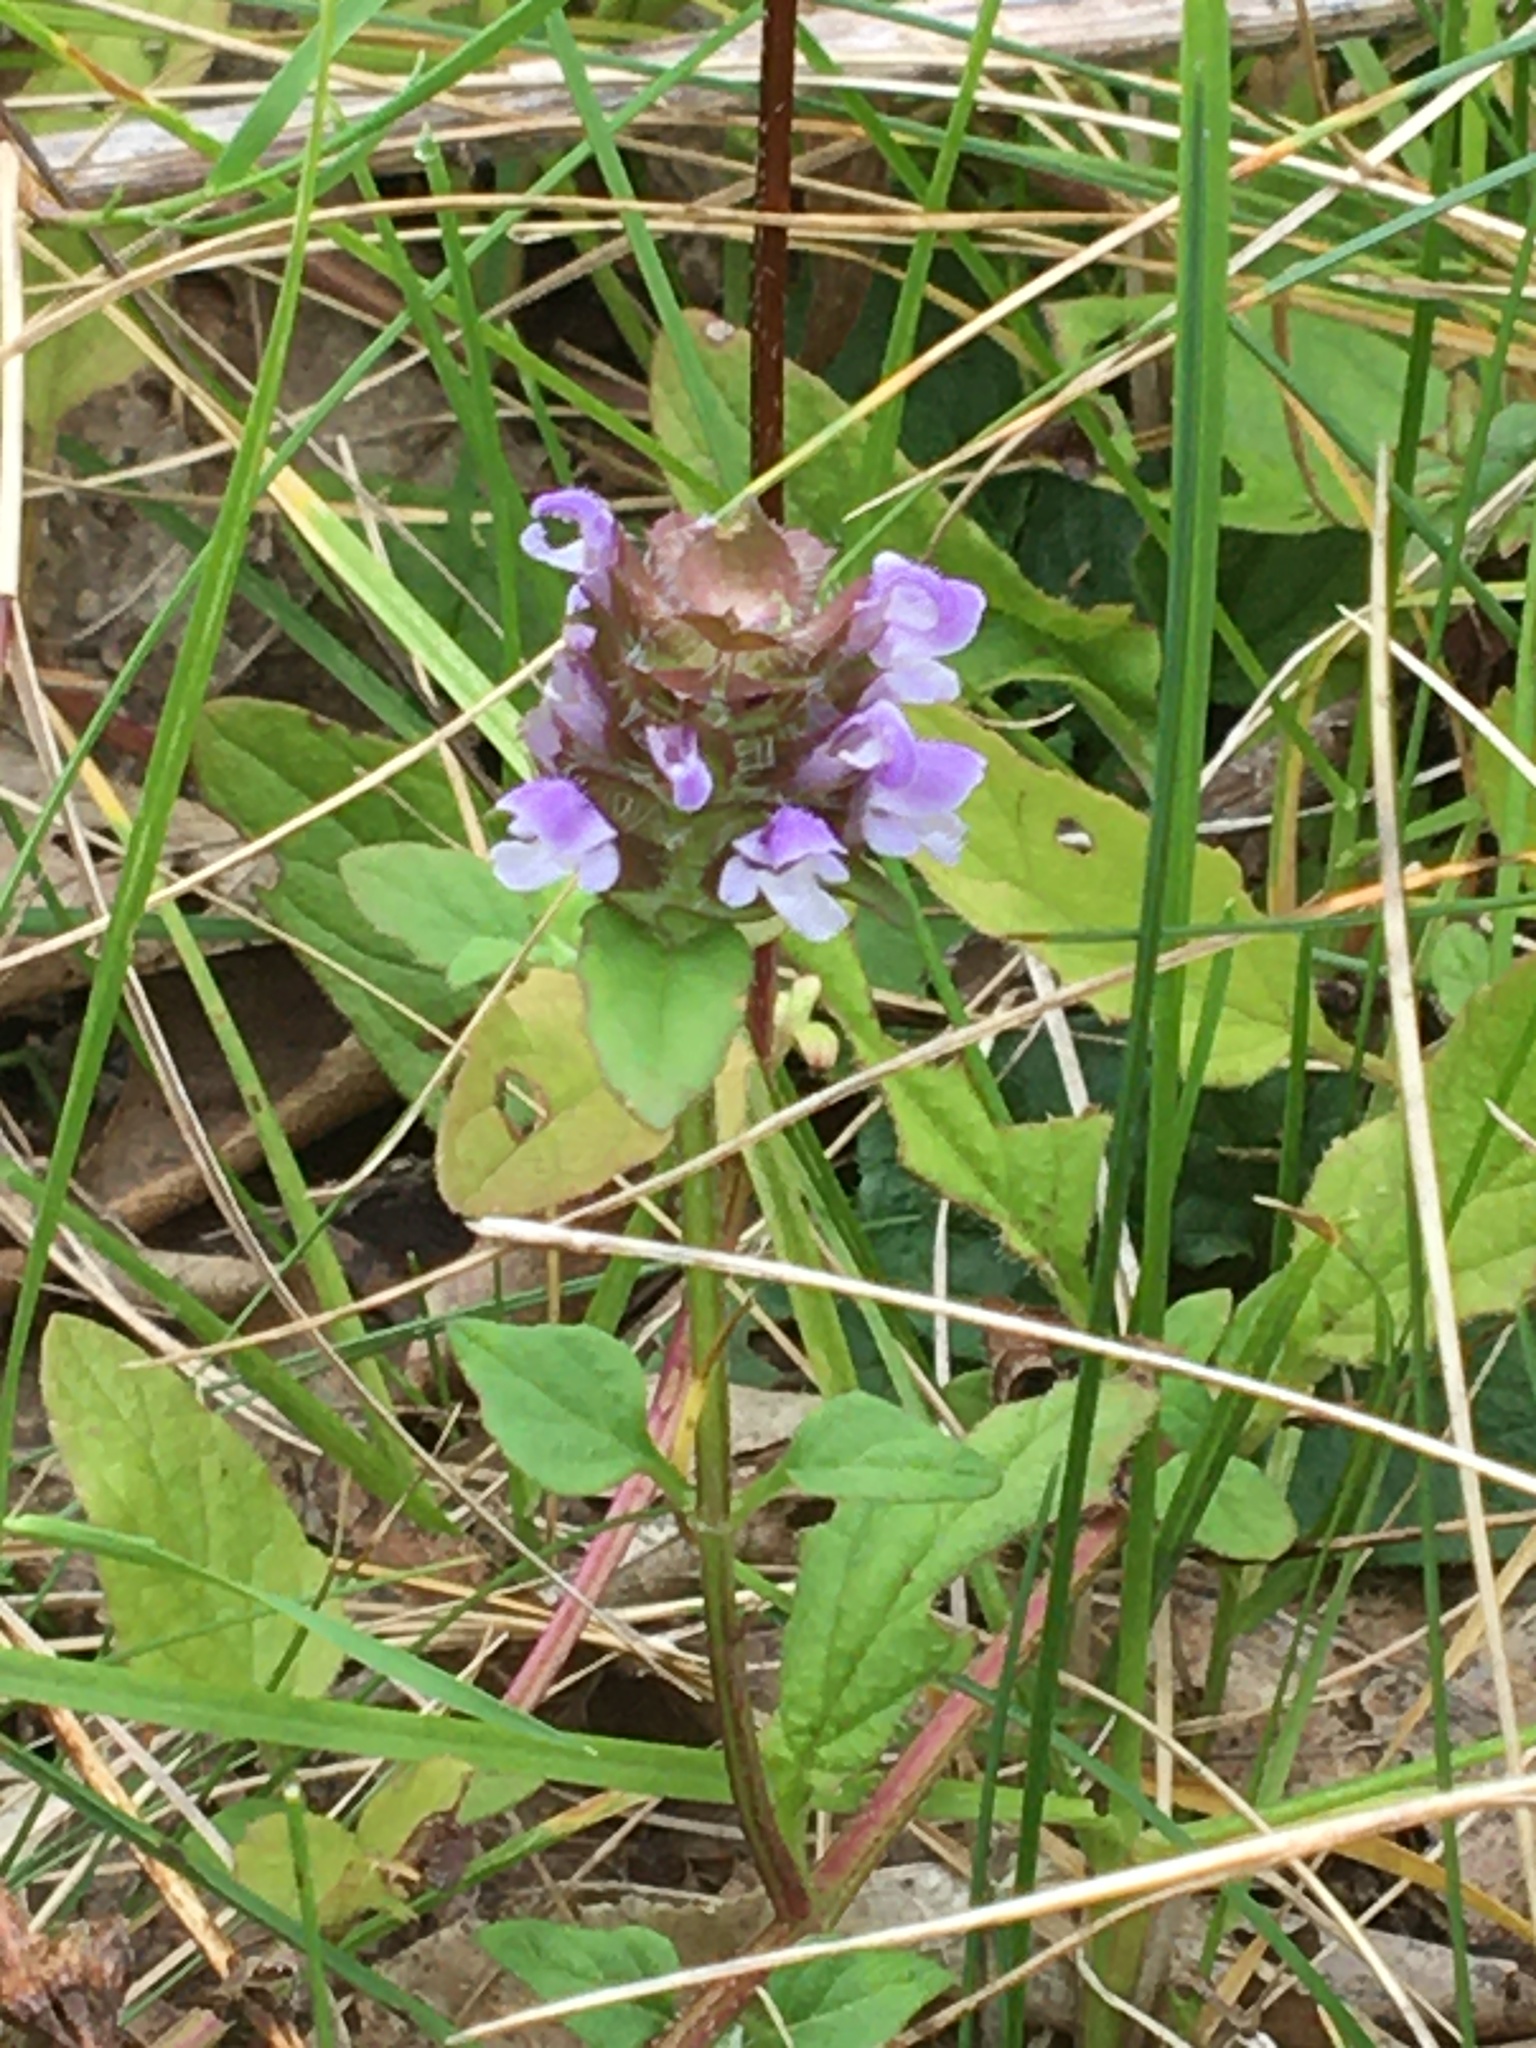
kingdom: Plantae
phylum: Tracheophyta
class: Magnoliopsida
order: Lamiales
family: Lamiaceae
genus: Prunella
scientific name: Prunella vulgaris
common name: Heal-all
